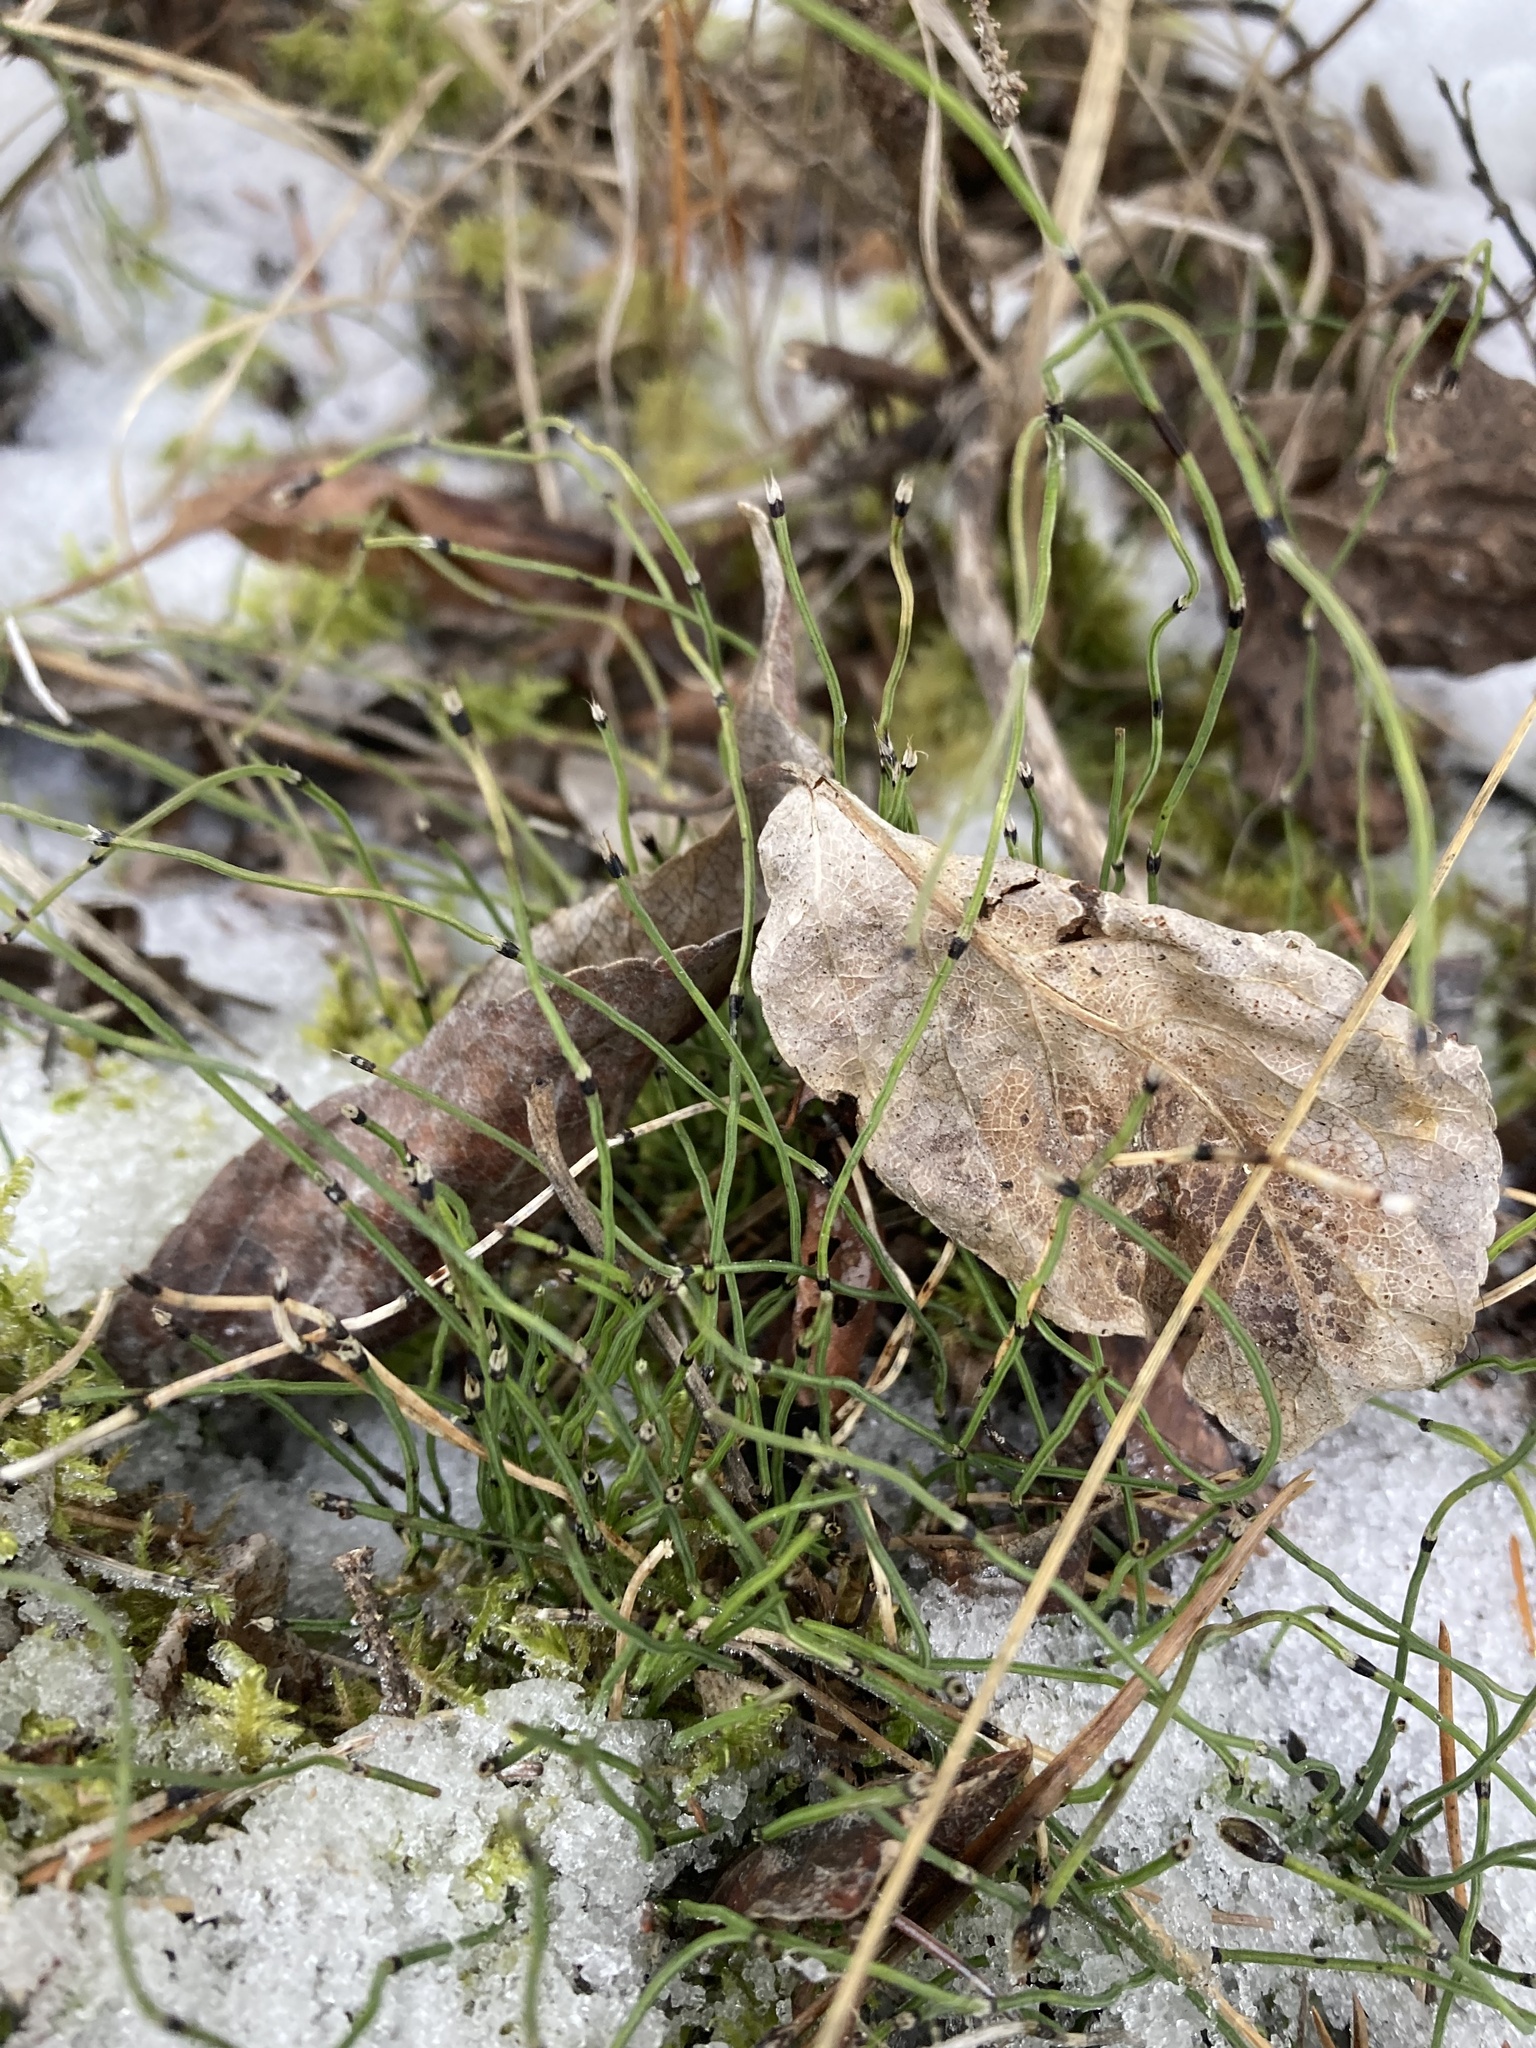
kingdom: Plantae
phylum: Tracheophyta
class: Polypodiopsida
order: Equisetales
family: Equisetaceae
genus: Equisetum
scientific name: Equisetum scirpoides
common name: Delicate horsetail
